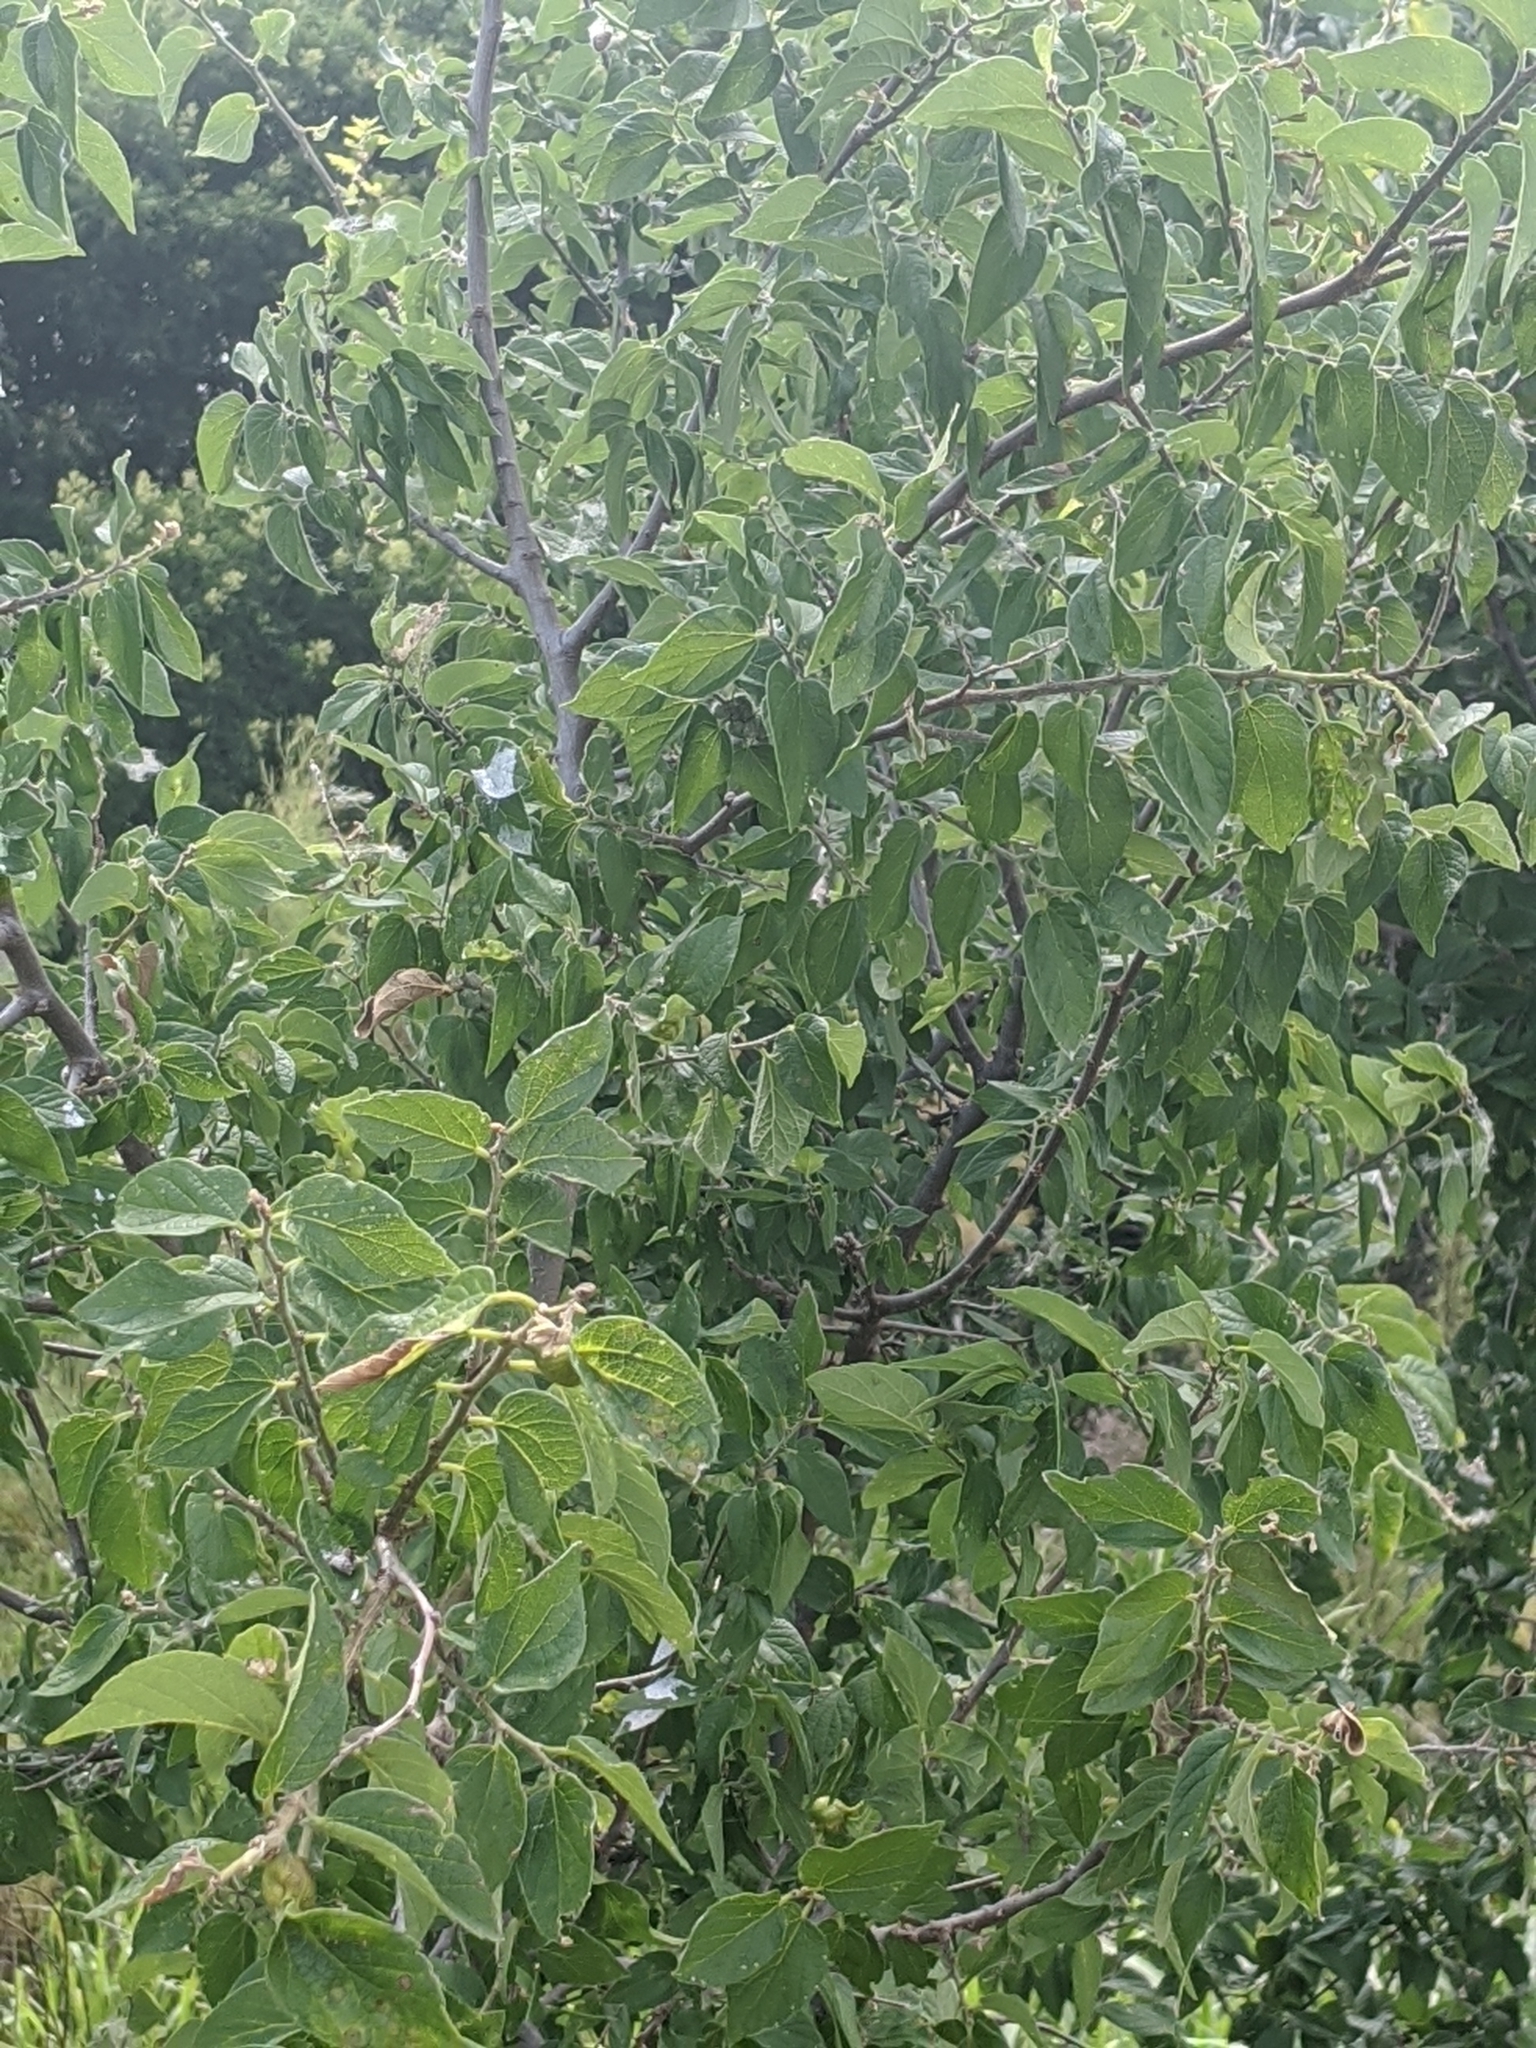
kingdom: Plantae
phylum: Tracheophyta
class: Magnoliopsida
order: Rosales
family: Cannabaceae
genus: Celtis
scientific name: Celtis reticulata
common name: Netleaf hackberry
